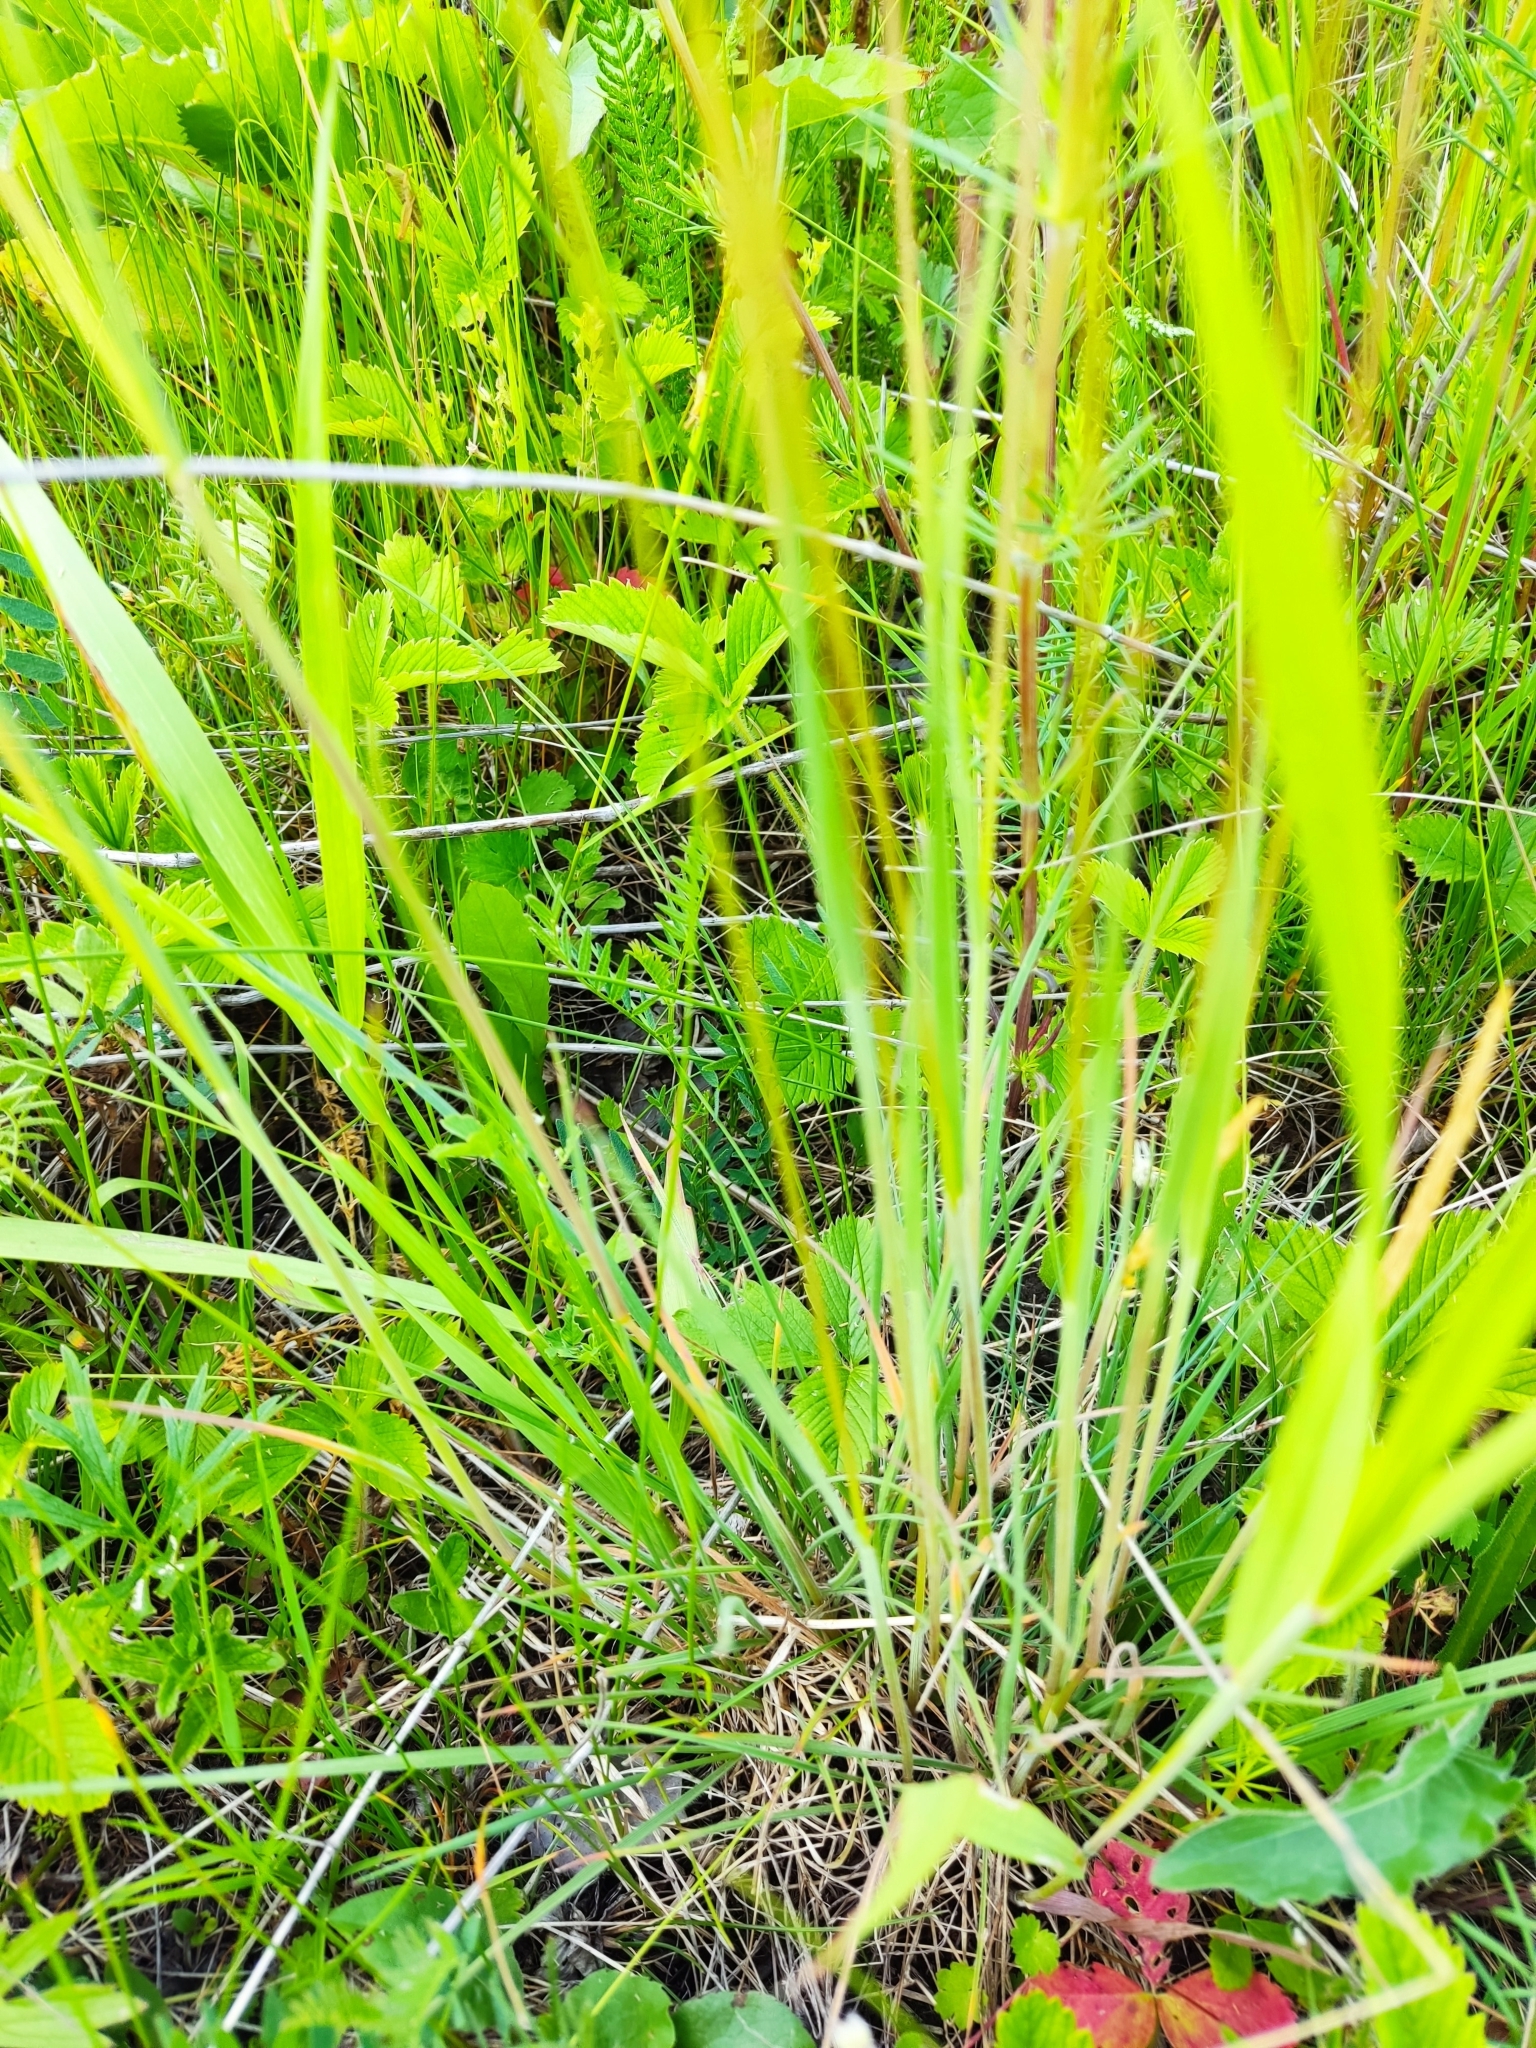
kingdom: Plantae
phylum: Tracheophyta
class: Liliopsida
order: Poales
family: Poaceae
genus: Koeleria
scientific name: Koeleria macrantha
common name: Crested hair-grass
